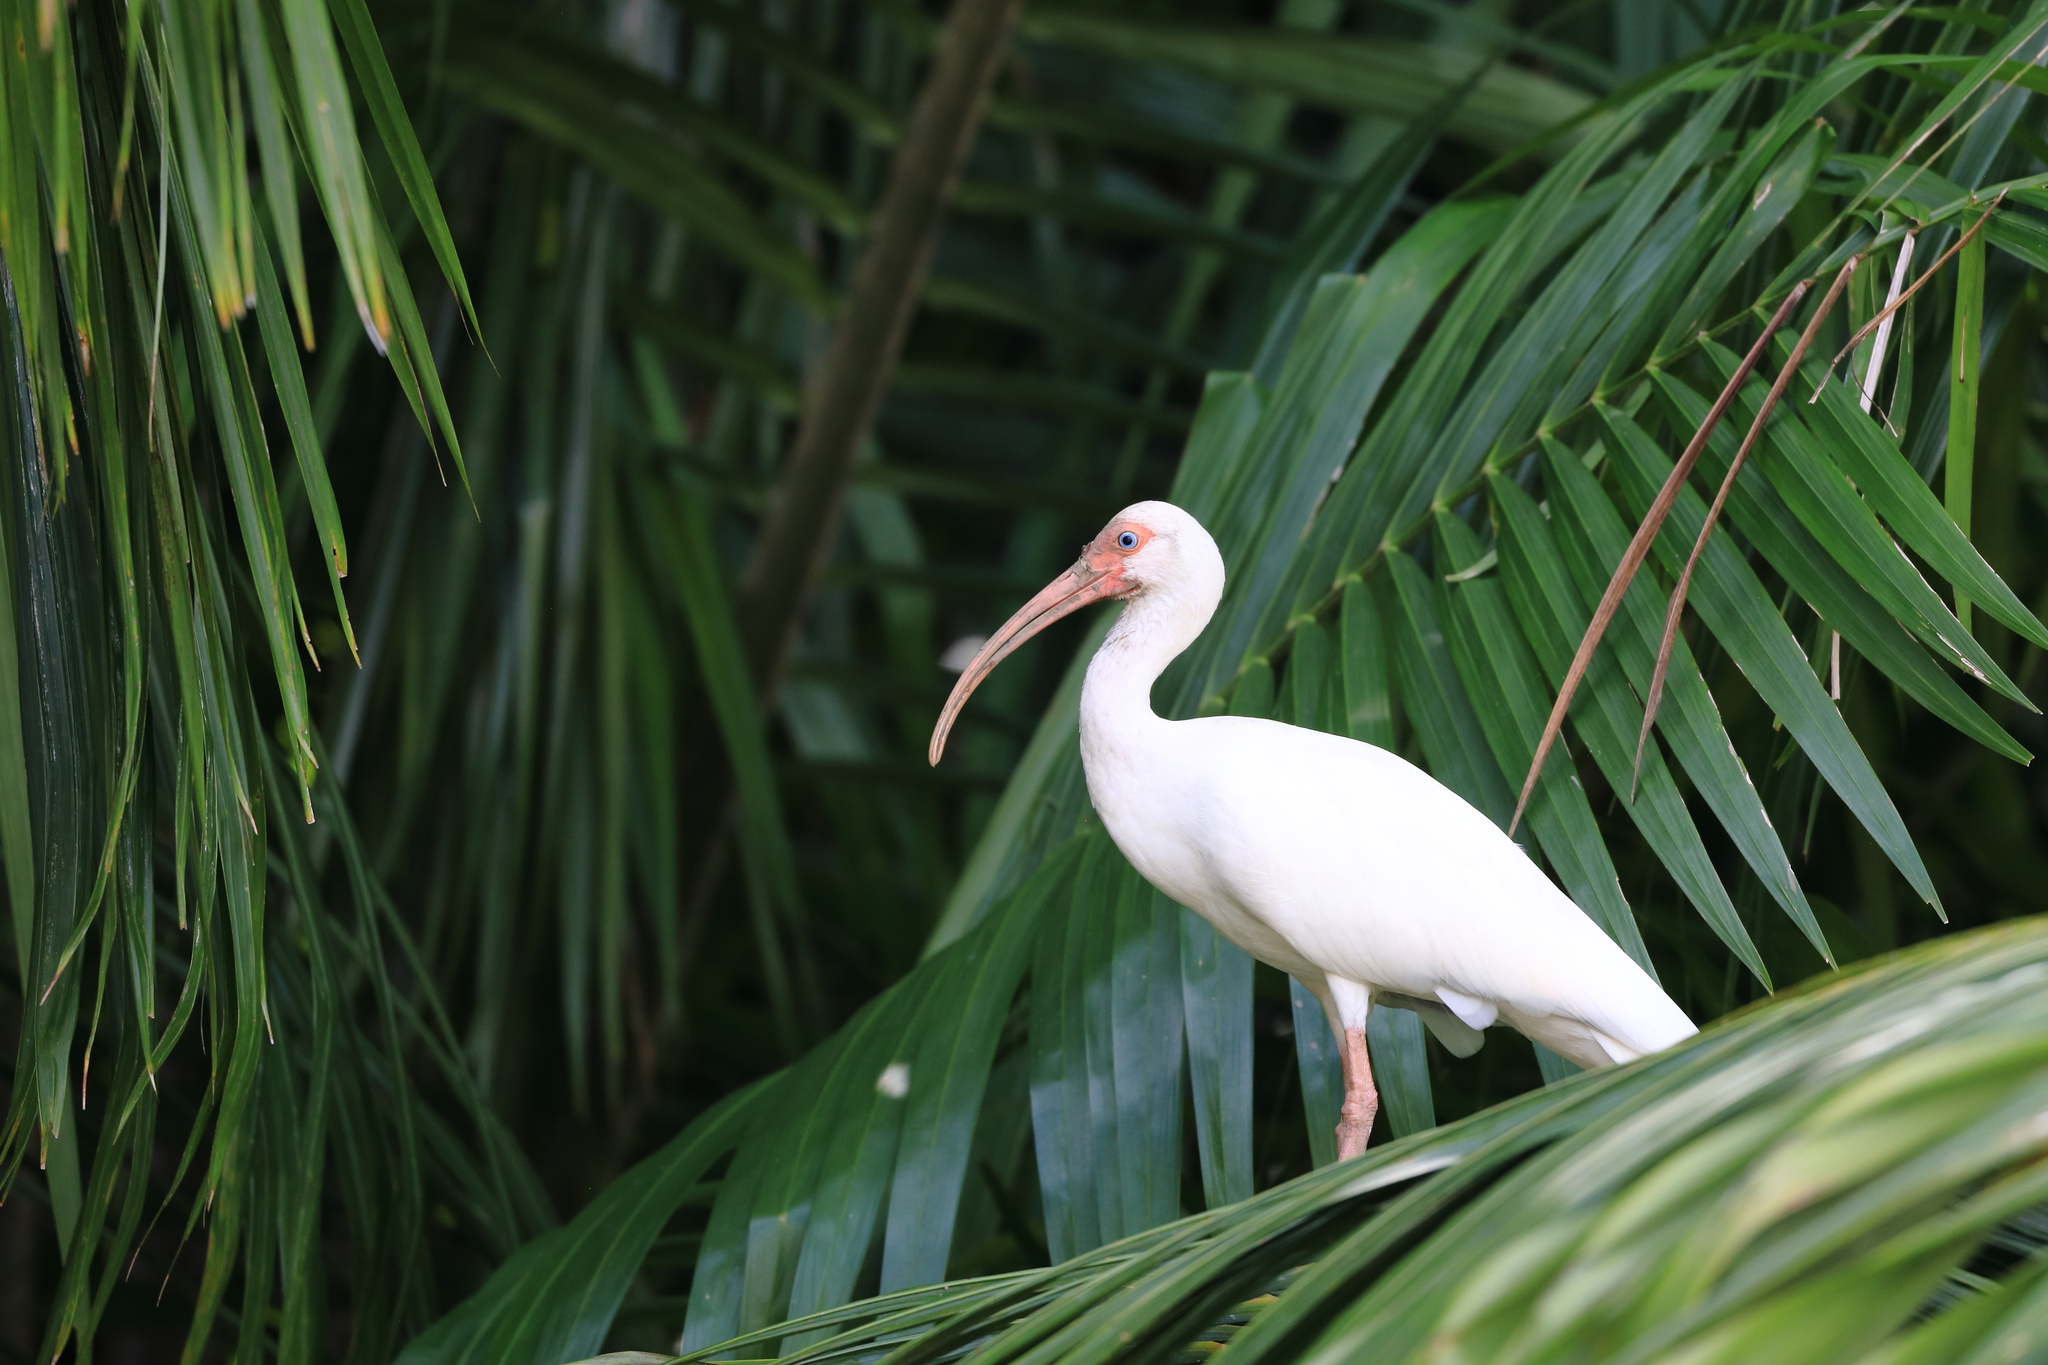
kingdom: Animalia
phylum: Chordata
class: Aves
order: Pelecaniformes
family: Threskiornithidae
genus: Eudocimus
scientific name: Eudocimus albus
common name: White ibis
